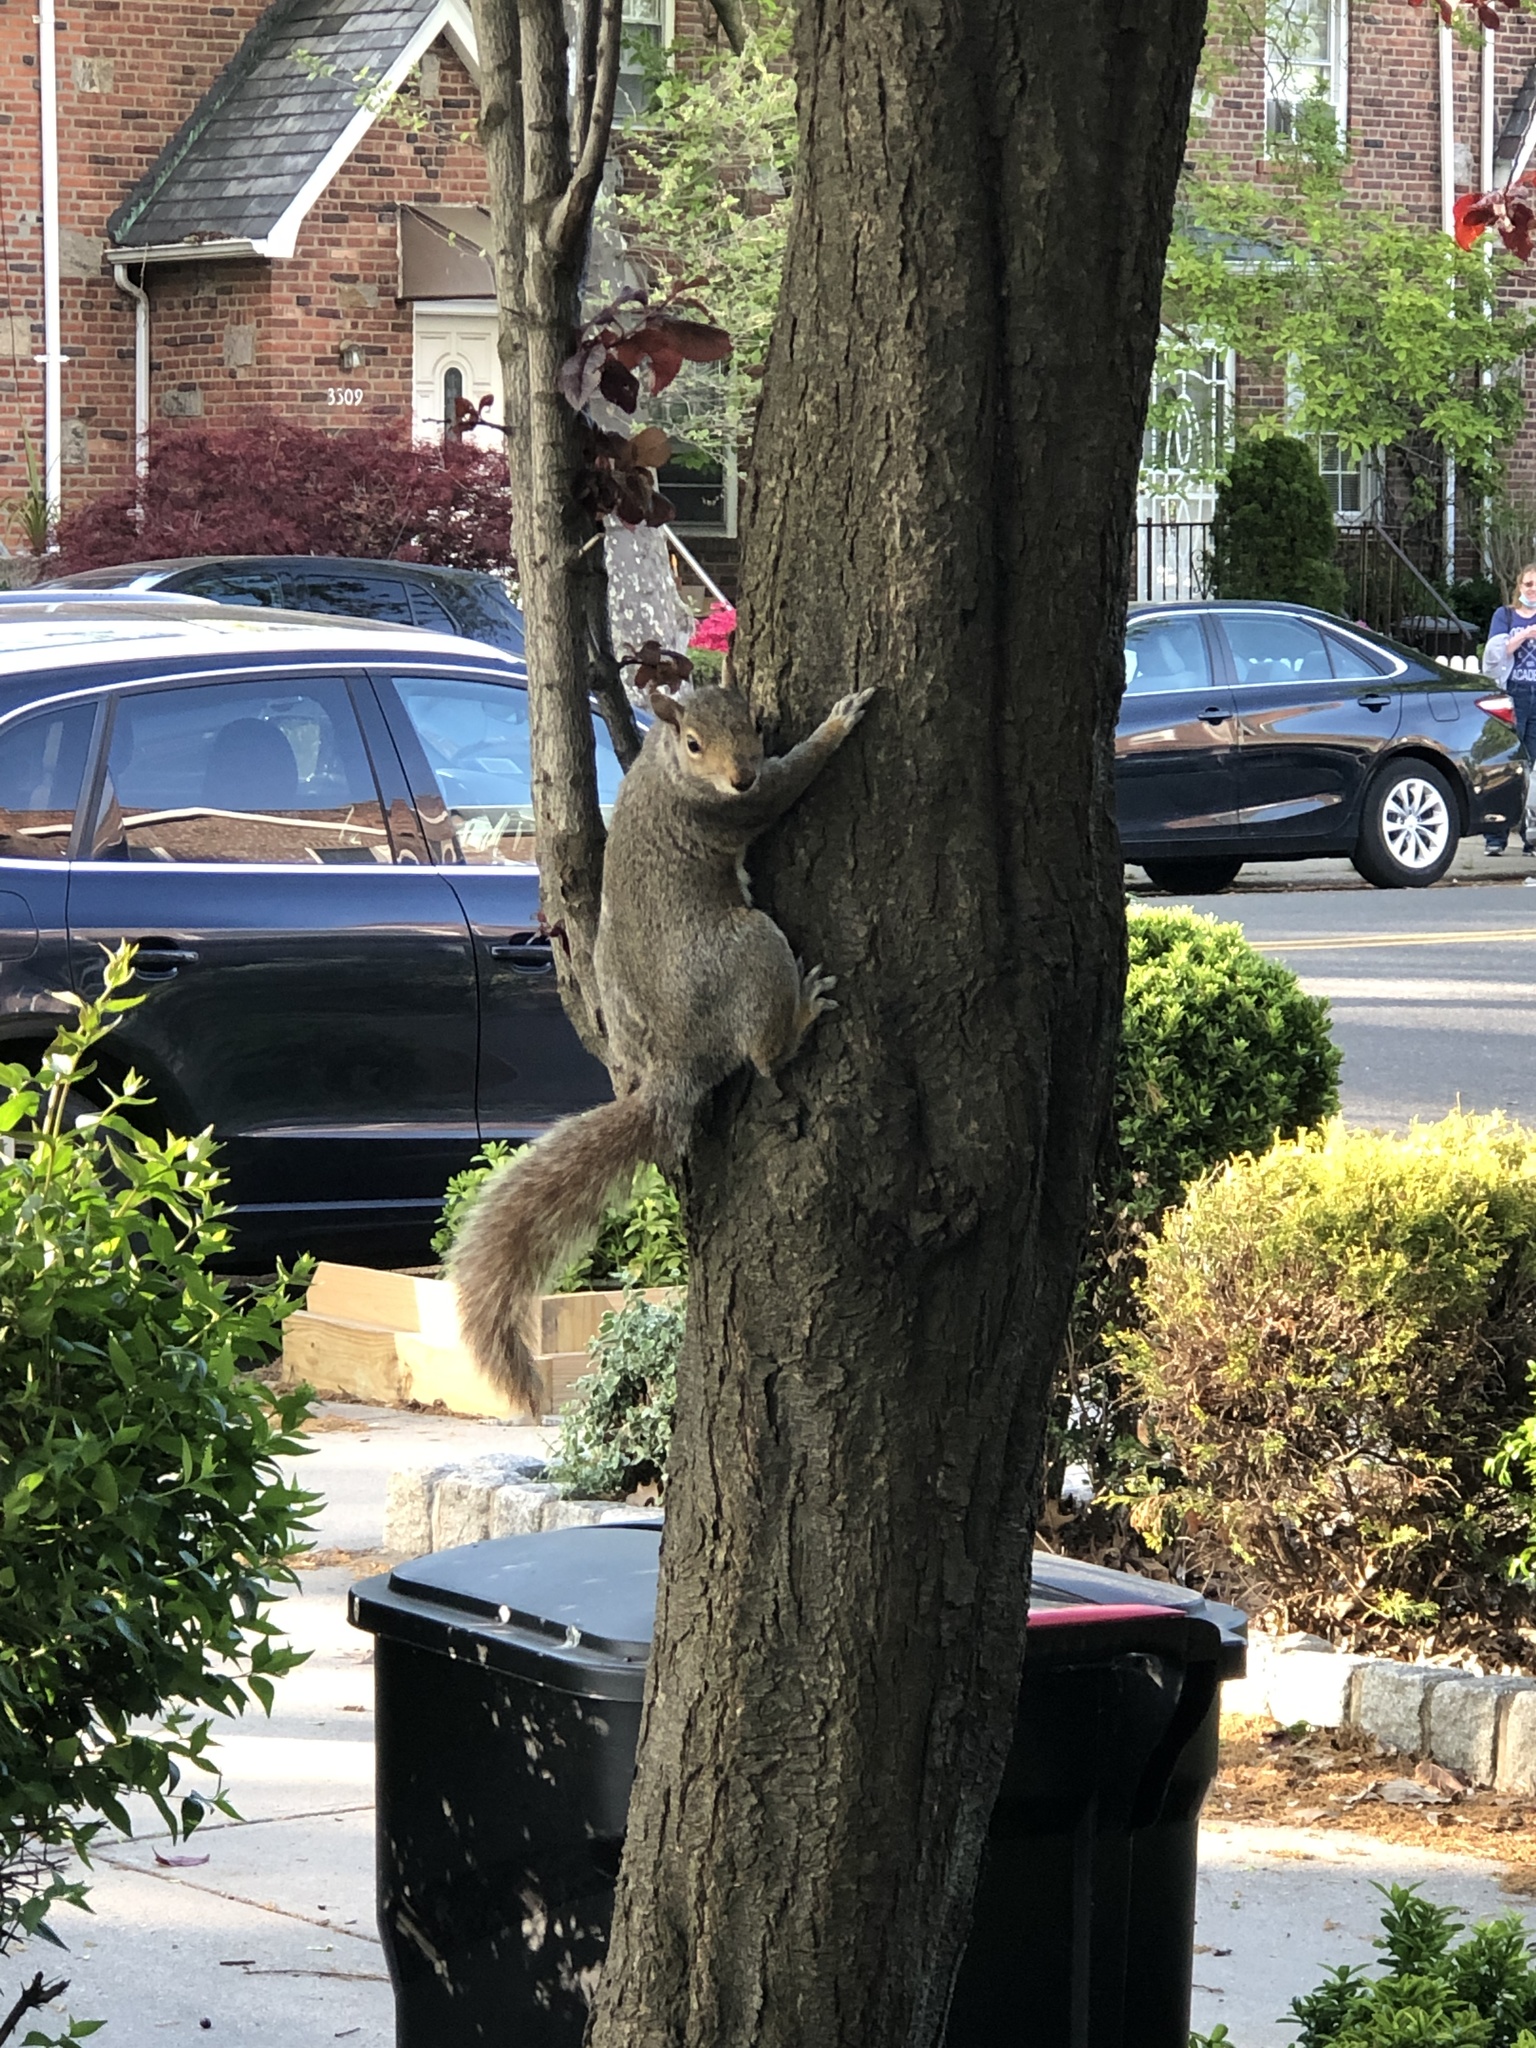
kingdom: Animalia
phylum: Chordata
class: Mammalia
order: Rodentia
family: Sciuridae
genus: Sciurus
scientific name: Sciurus carolinensis
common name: Eastern gray squirrel
